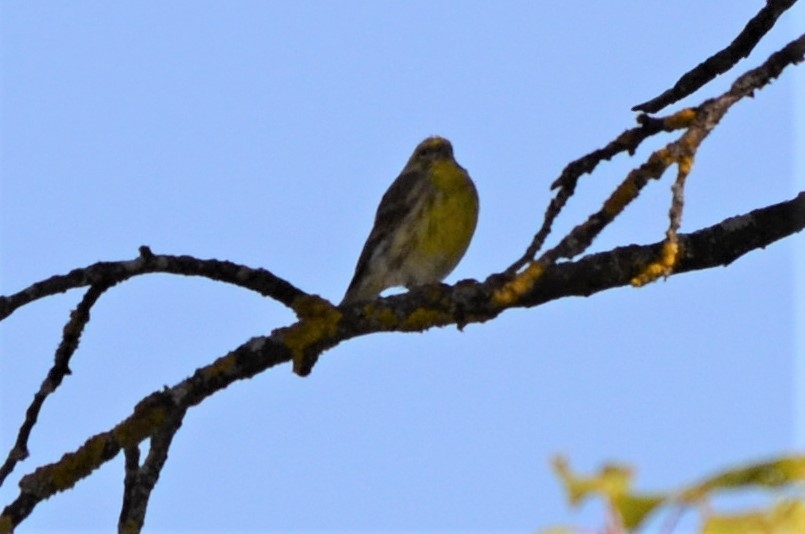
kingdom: Animalia
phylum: Chordata
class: Aves
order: Passeriformes
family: Fringillidae
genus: Serinus
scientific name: Serinus serinus
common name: European serin
